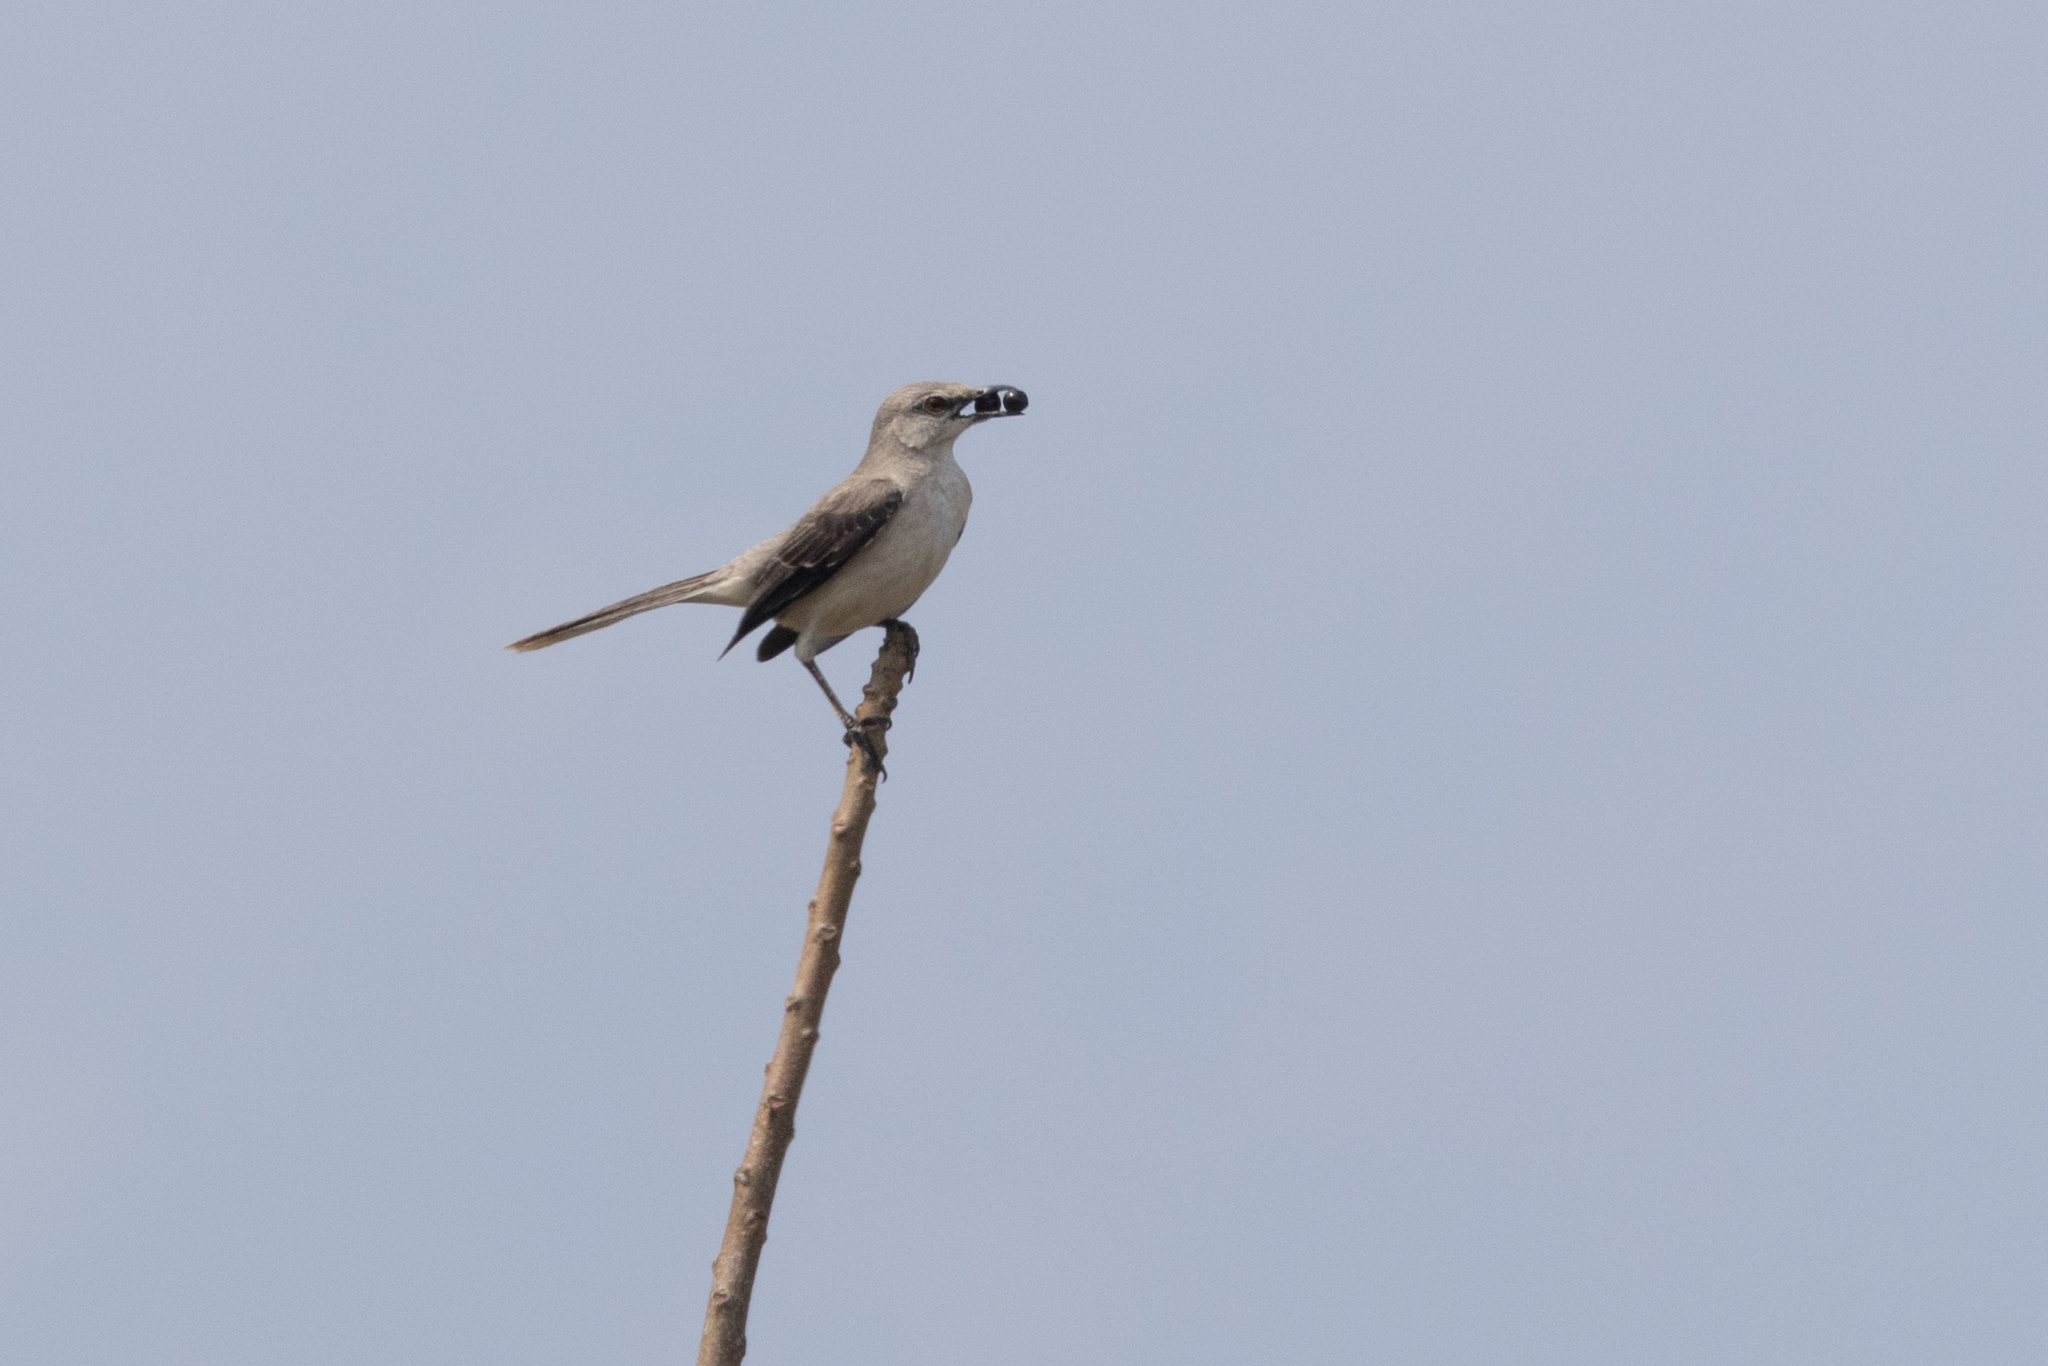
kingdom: Animalia
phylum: Chordata
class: Aves
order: Passeriformes
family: Mimidae
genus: Mimus
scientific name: Mimus gilvus
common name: Tropical mockingbird
